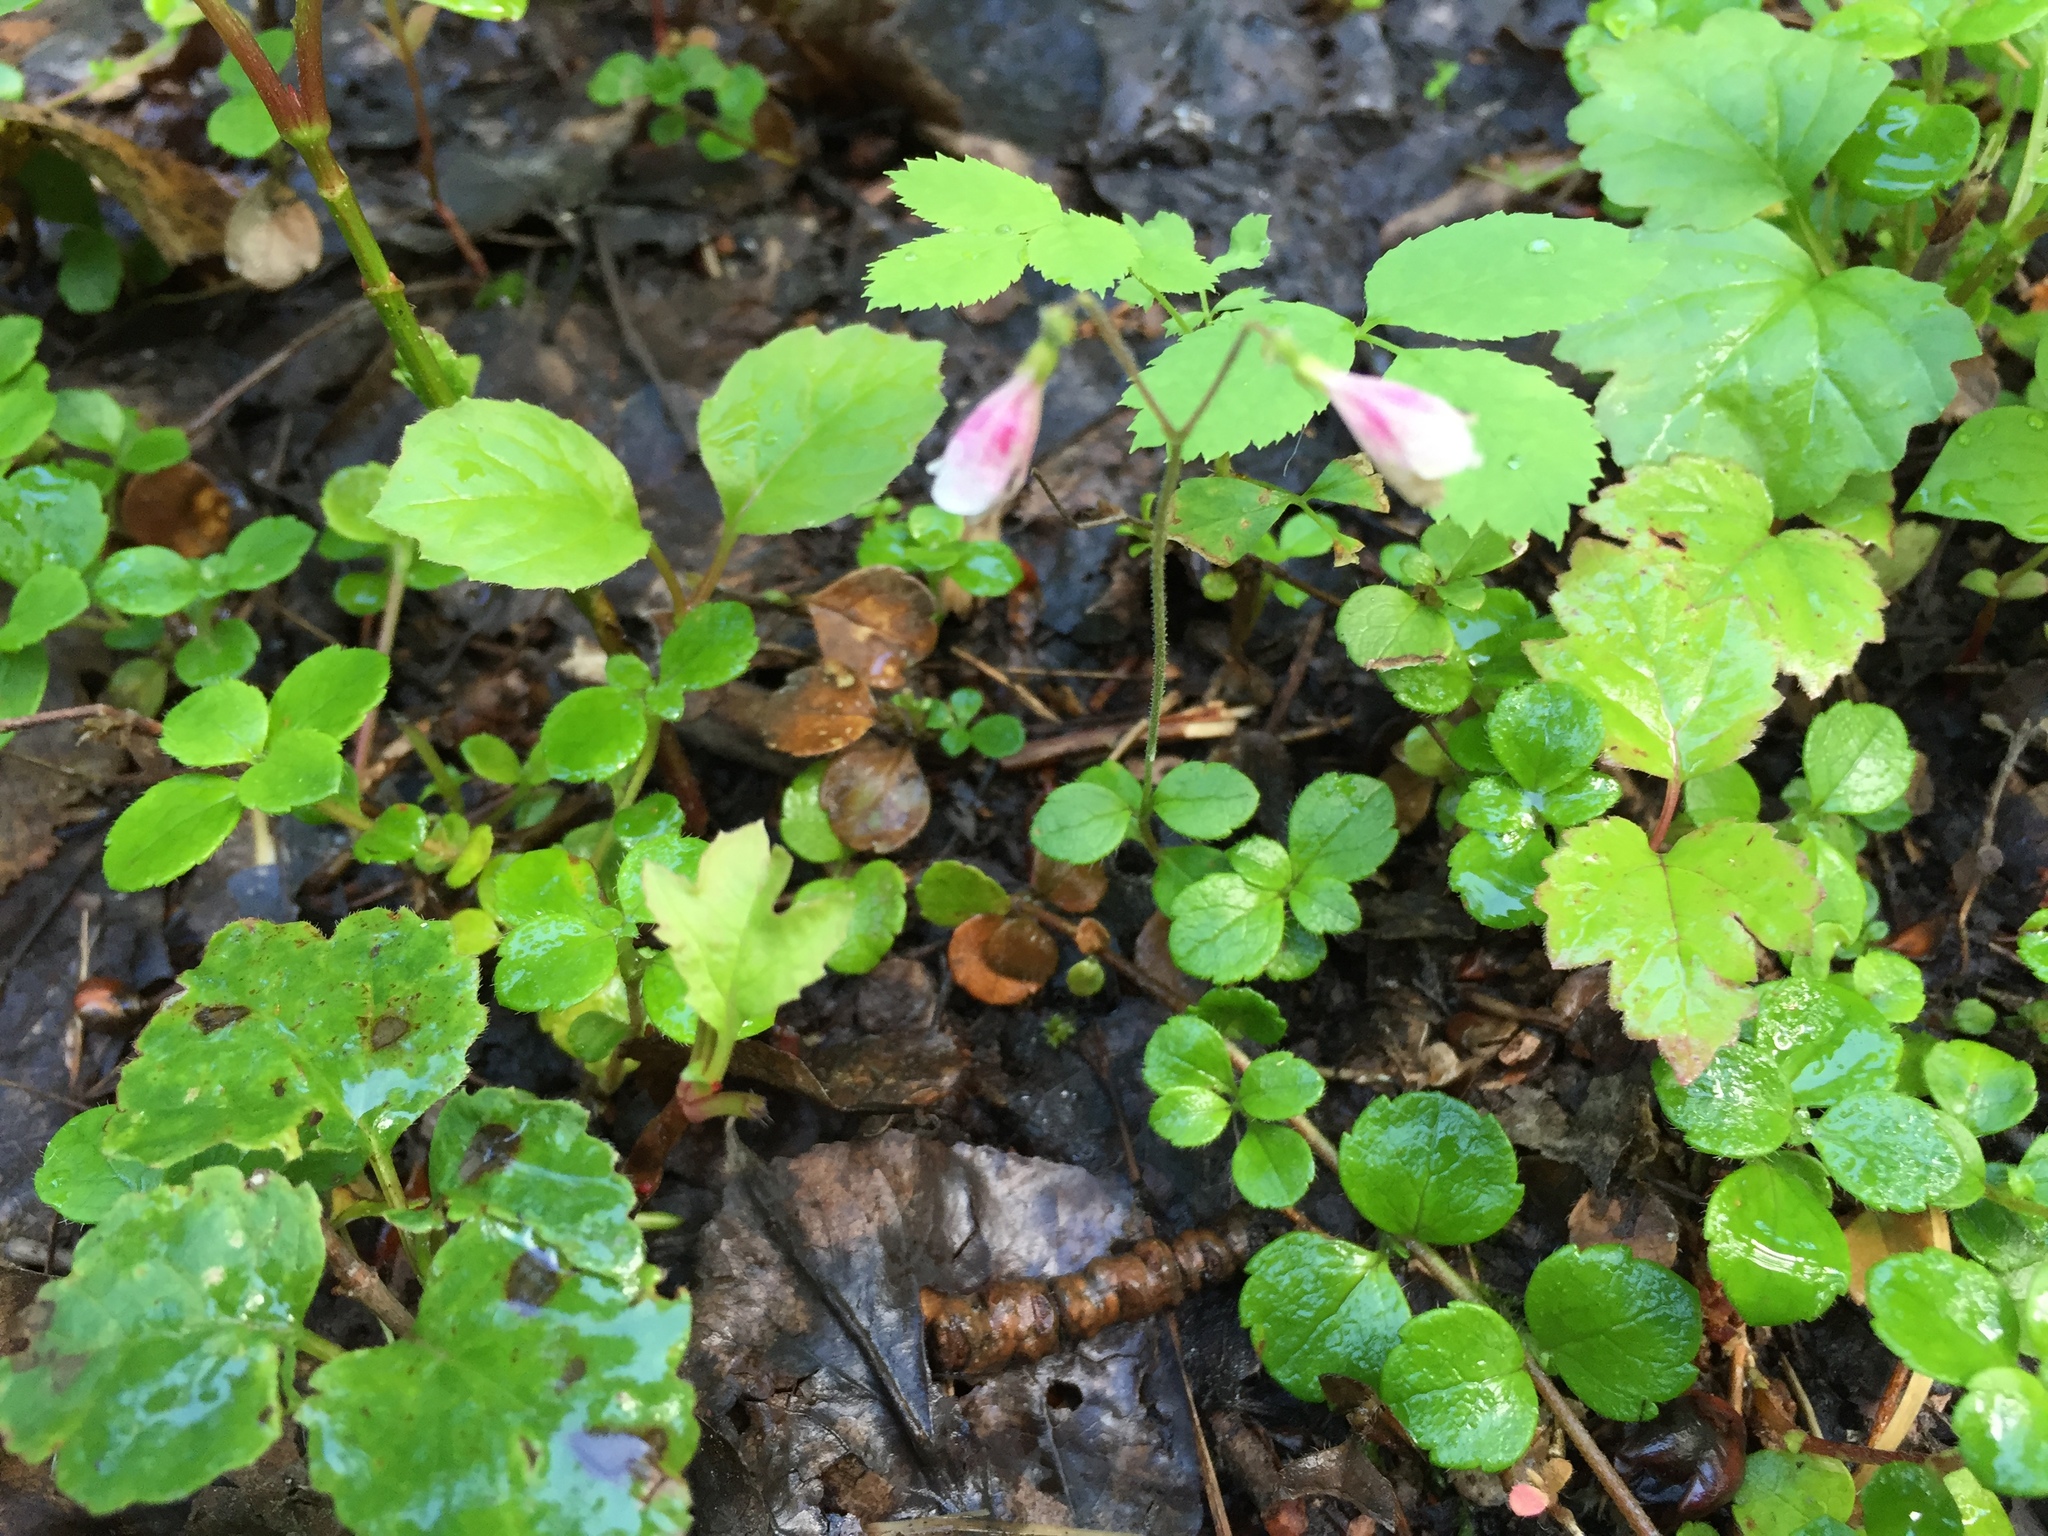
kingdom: Plantae
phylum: Tracheophyta
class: Magnoliopsida
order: Dipsacales
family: Caprifoliaceae
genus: Linnaea
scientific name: Linnaea borealis
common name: Twinflower
